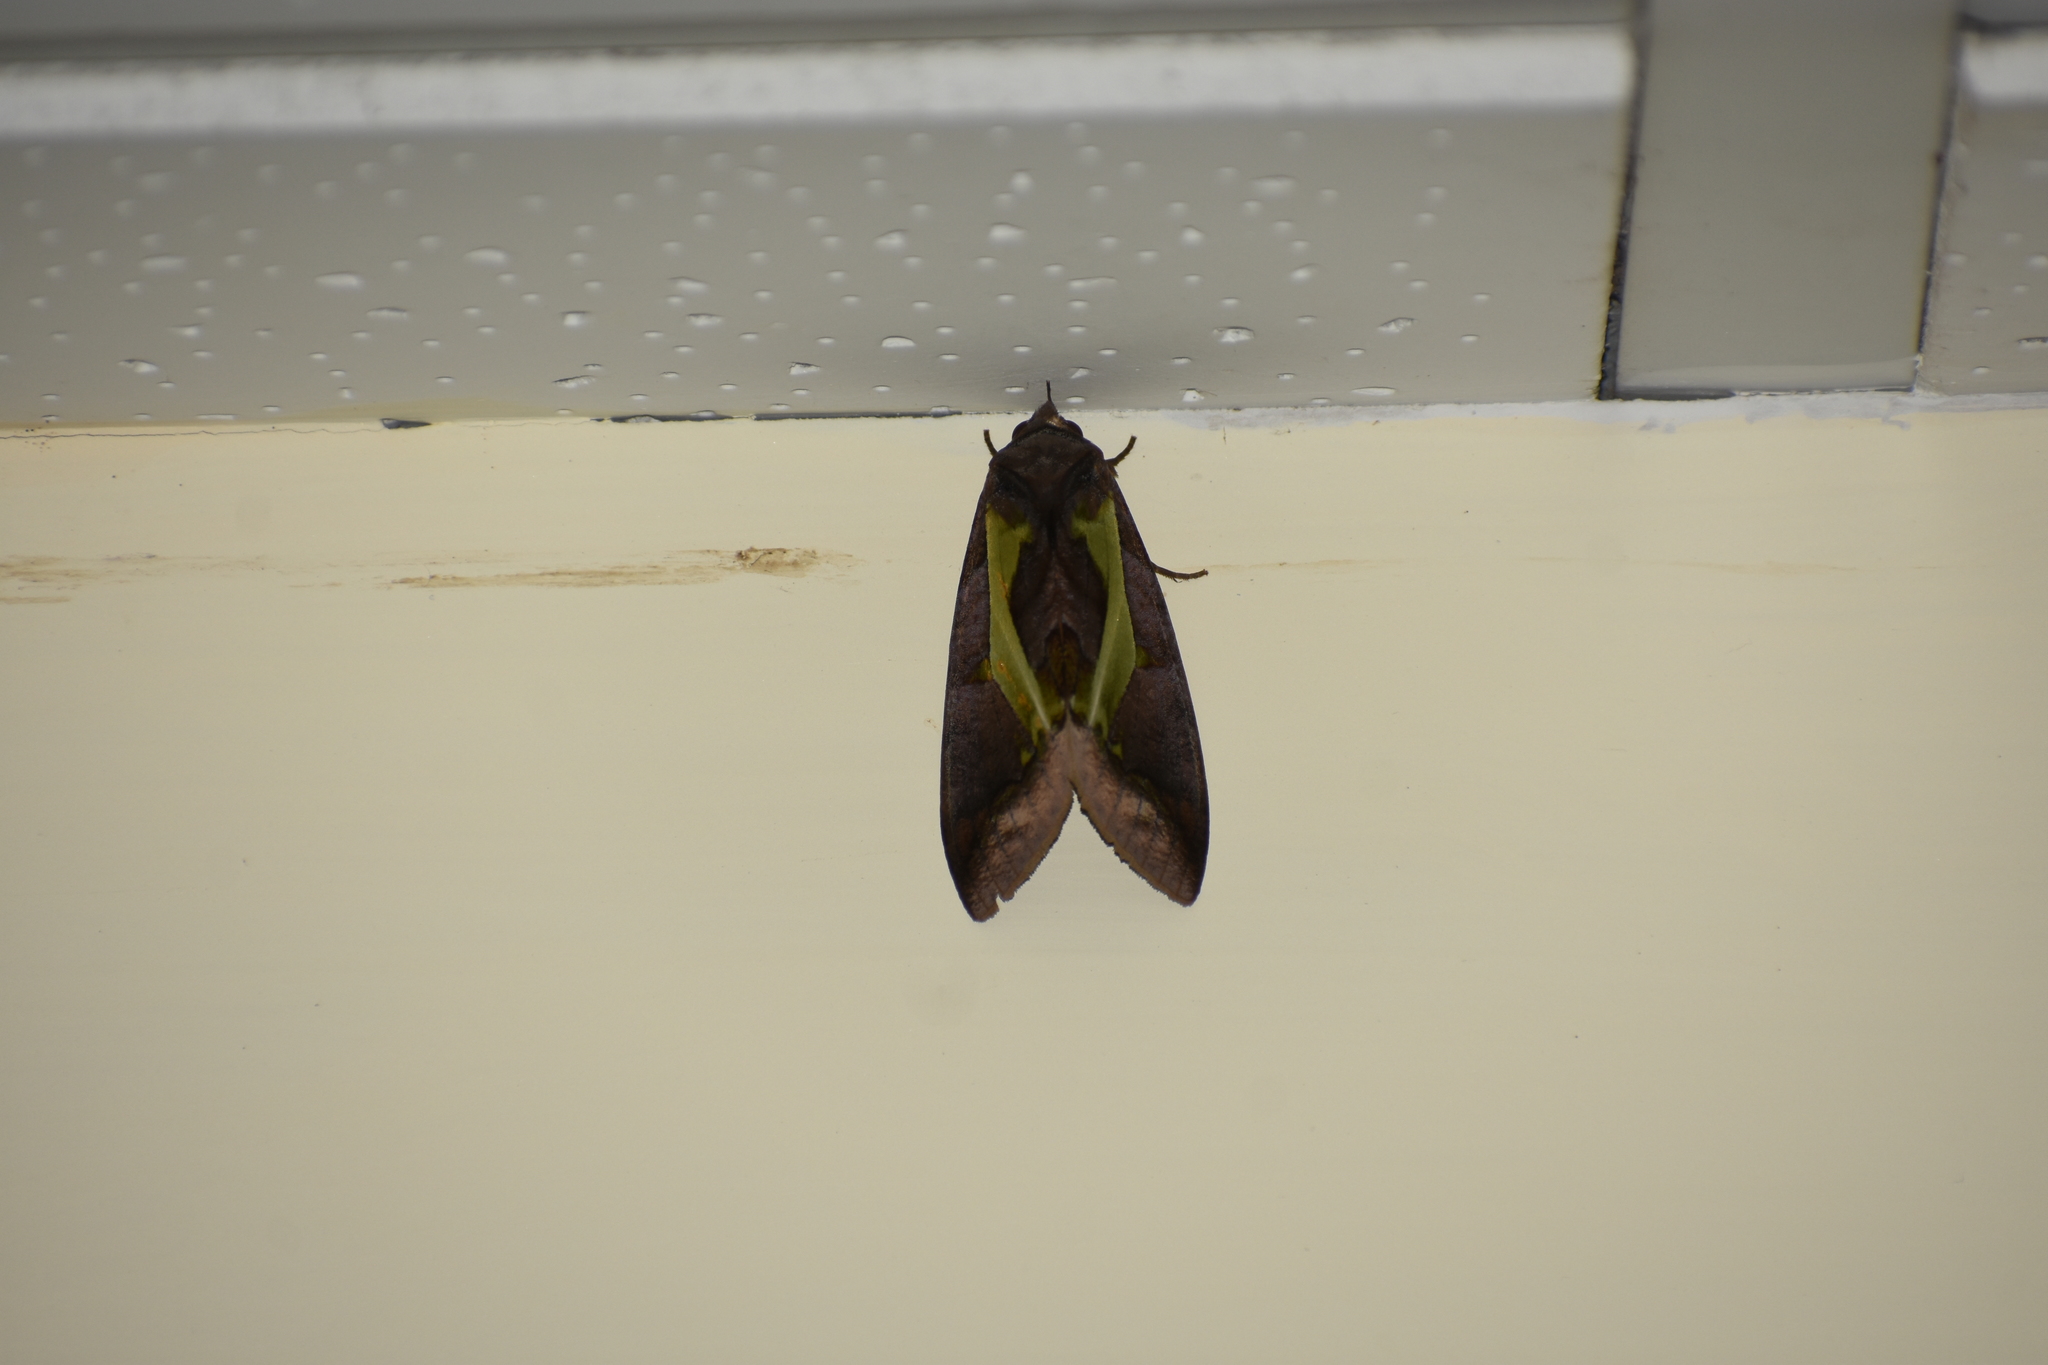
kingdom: Animalia
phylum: Arthropoda
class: Insecta
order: Lepidoptera
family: Erebidae
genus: Eudocima
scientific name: Eudocima homaena
